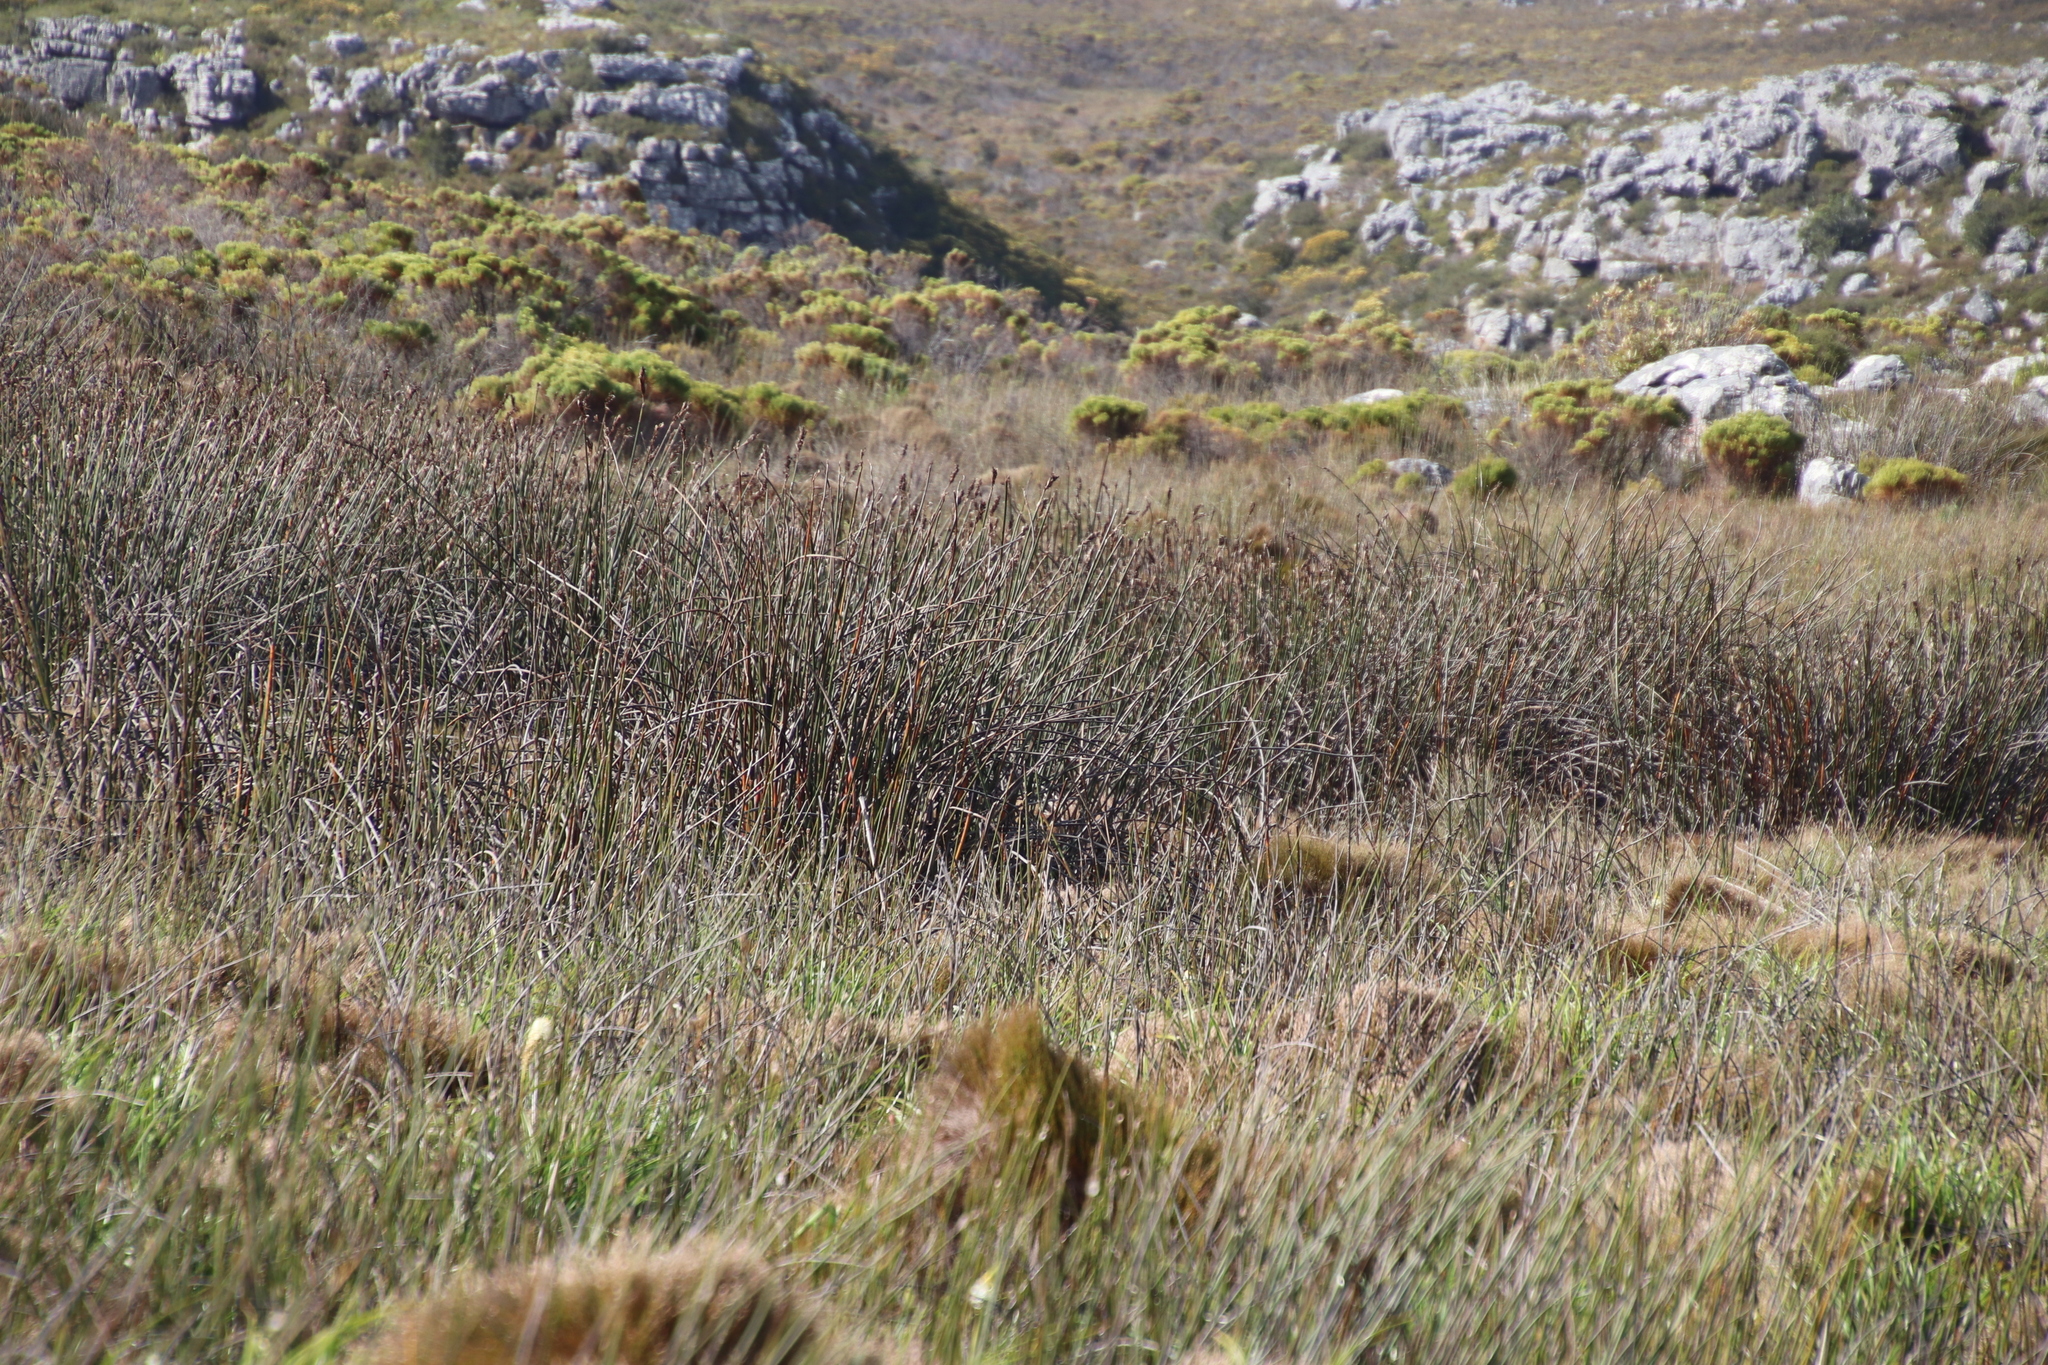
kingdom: Plantae
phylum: Tracheophyta
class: Liliopsida
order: Poales
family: Restionaceae
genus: Elegia
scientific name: Elegia mucronata
